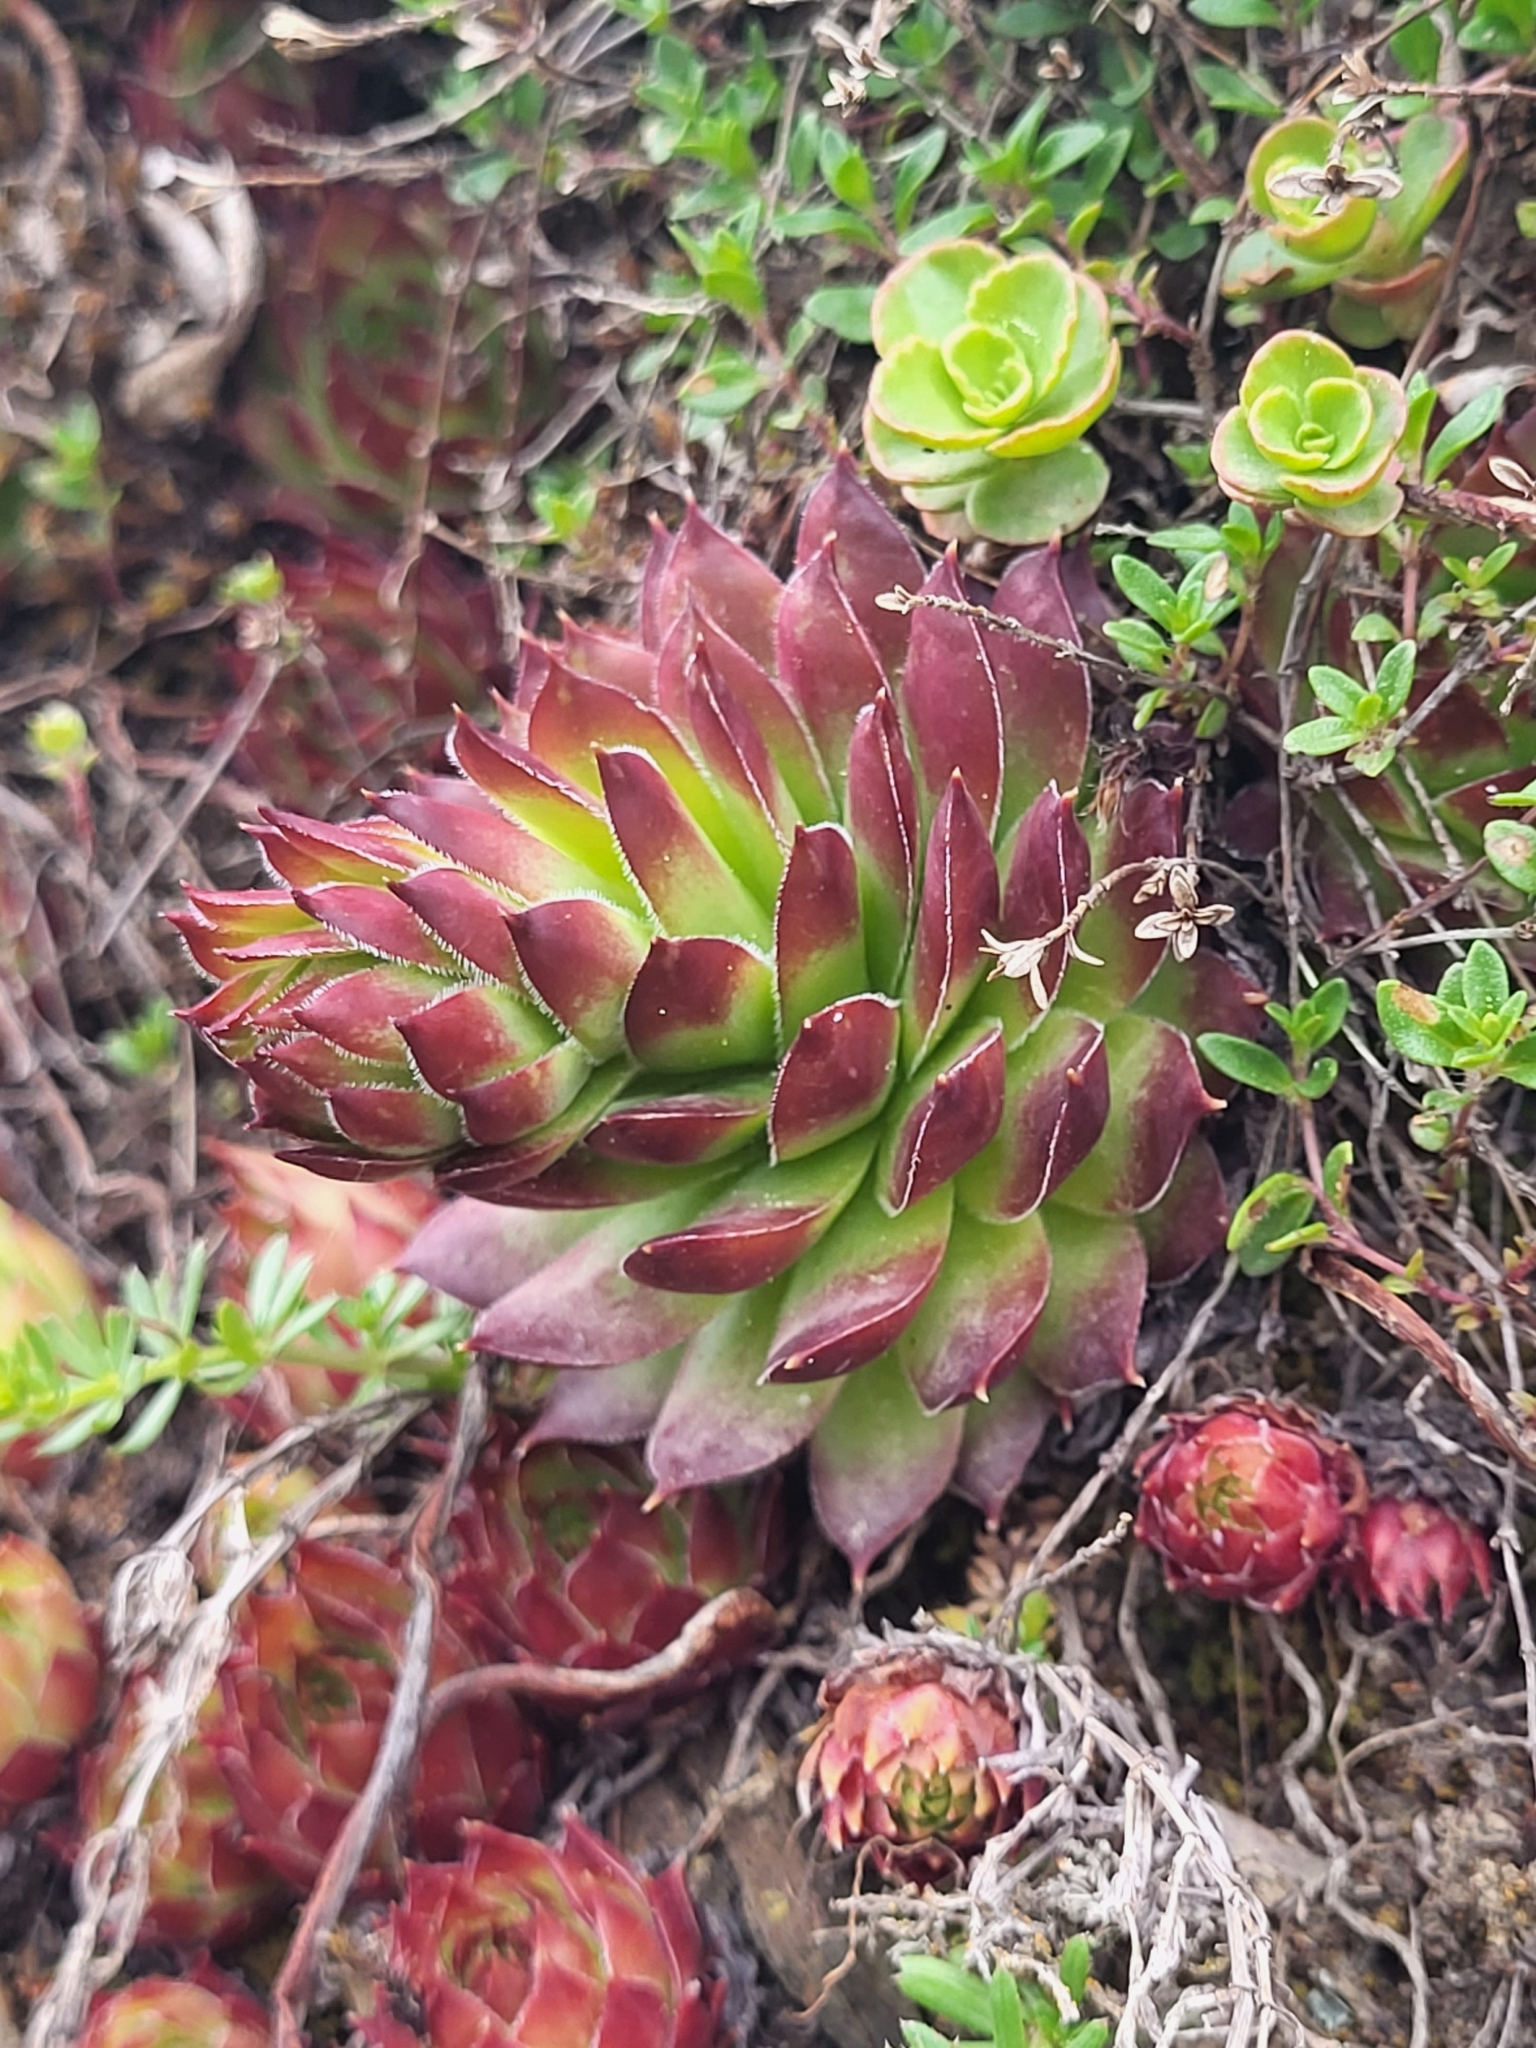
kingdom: Plantae
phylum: Tracheophyta
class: Magnoliopsida
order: Saxifragales
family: Crassulaceae
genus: Sempervivum
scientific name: Sempervivum caucasicum
